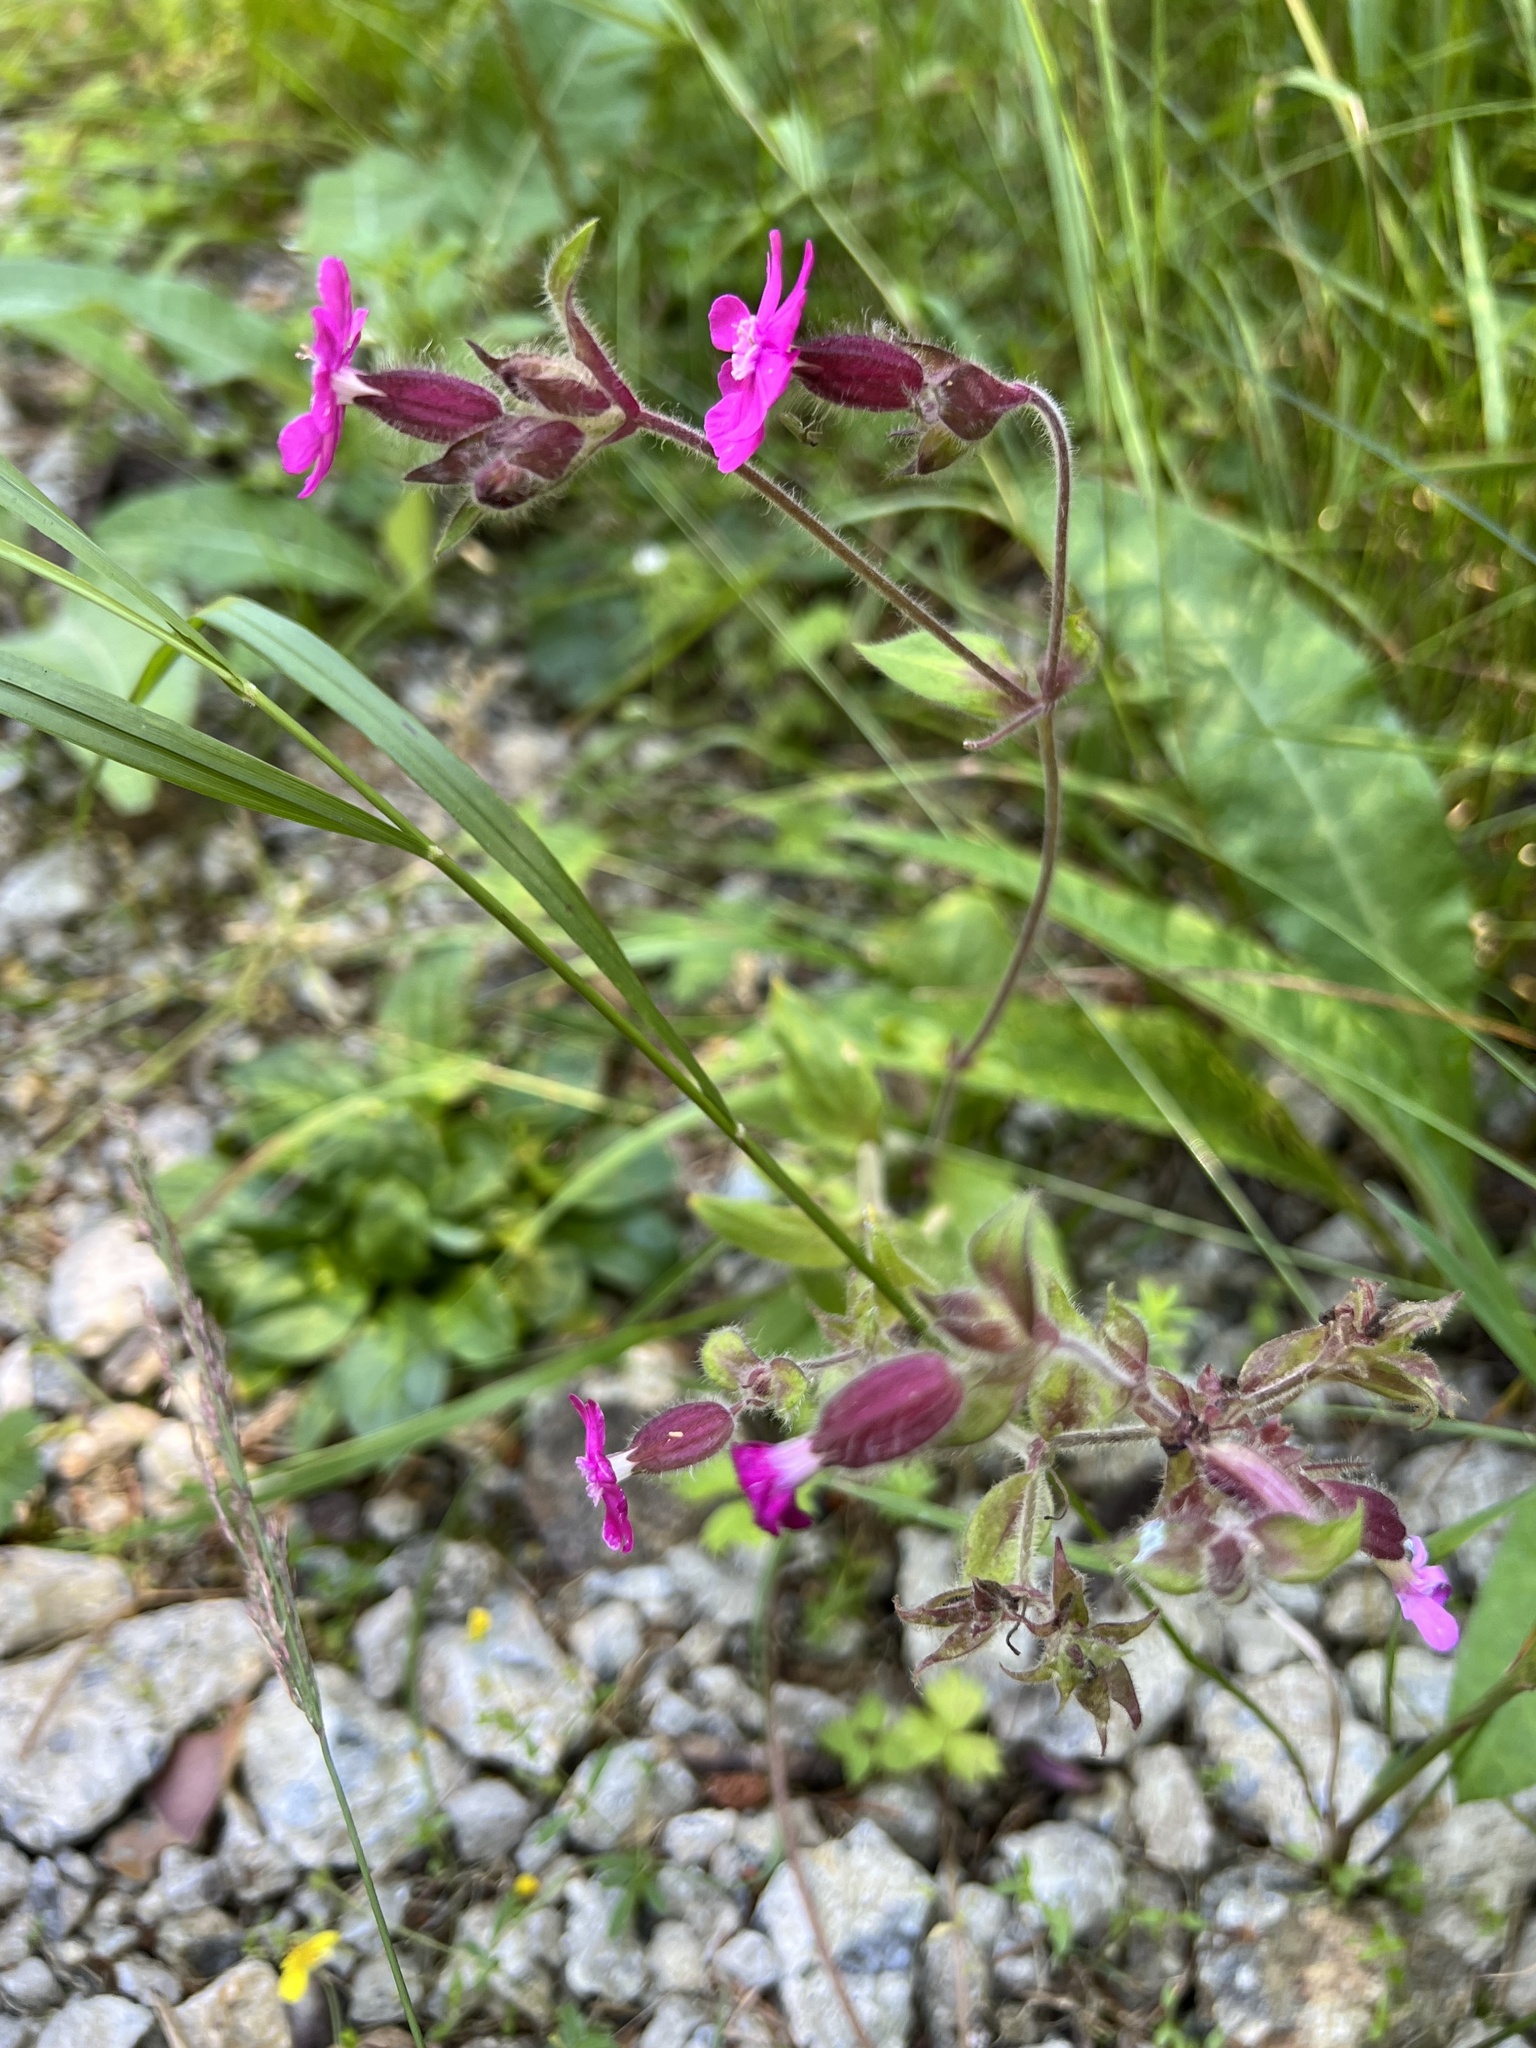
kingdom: Plantae
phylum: Tracheophyta
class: Magnoliopsida
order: Caryophyllales
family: Caryophyllaceae
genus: Silene
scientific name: Silene dioica
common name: Red campion
